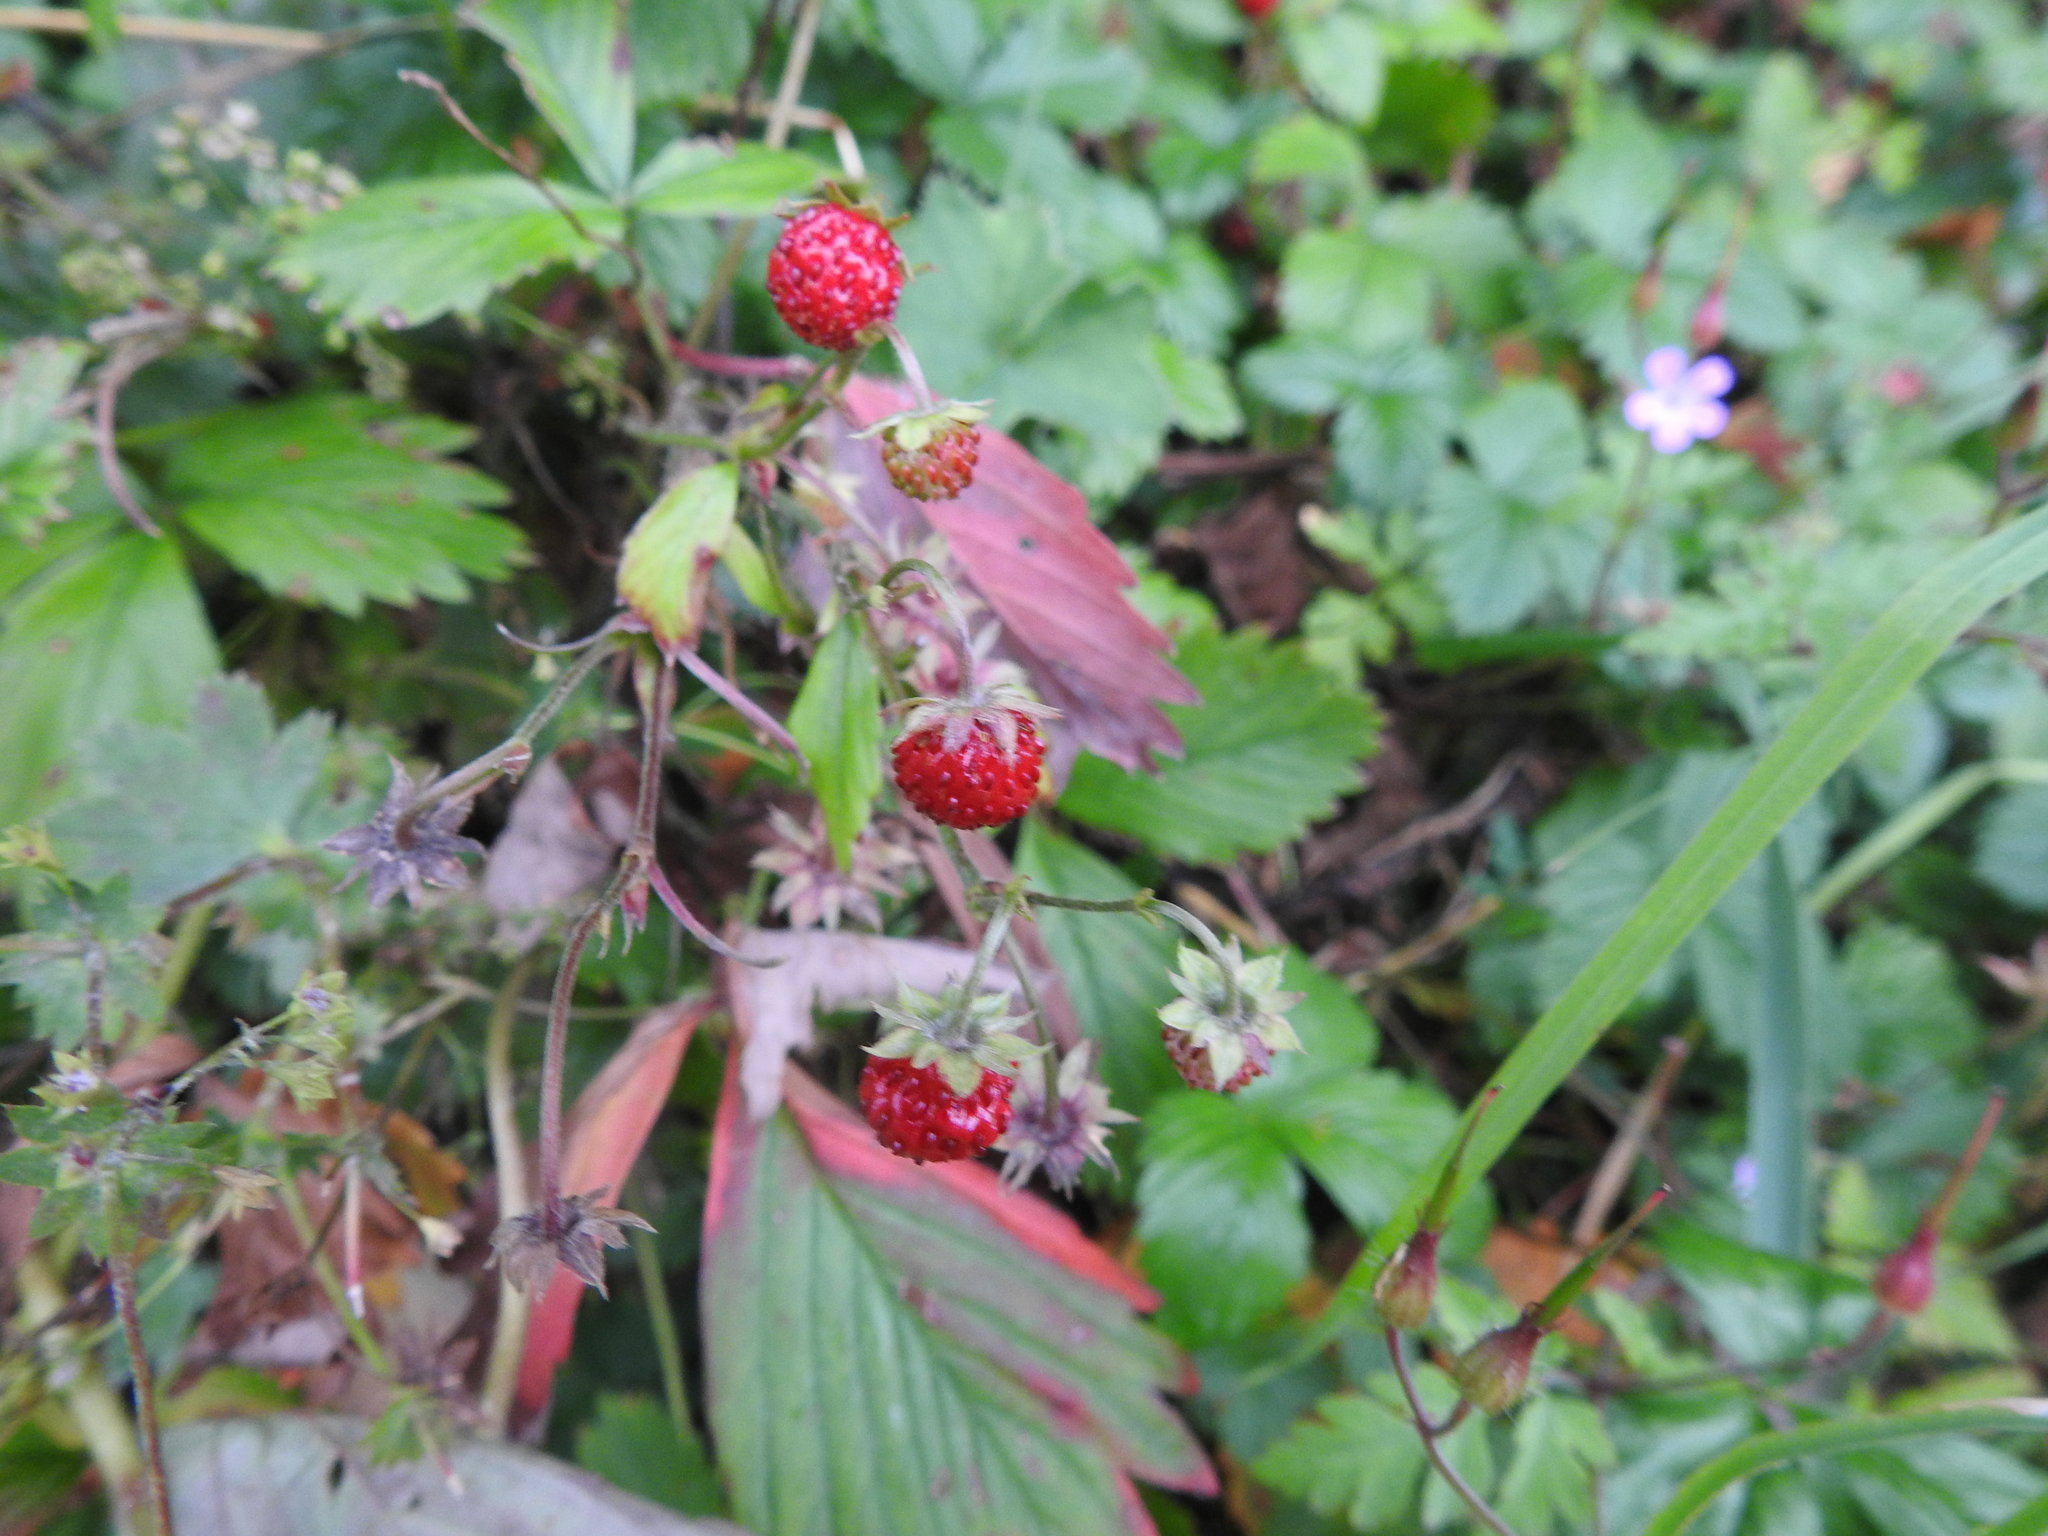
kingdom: Plantae
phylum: Tracheophyta
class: Magnoliopsida
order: Rosales
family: Rosaceae
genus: Fragaria
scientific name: Fragaria vesca
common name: Wild strawberry
